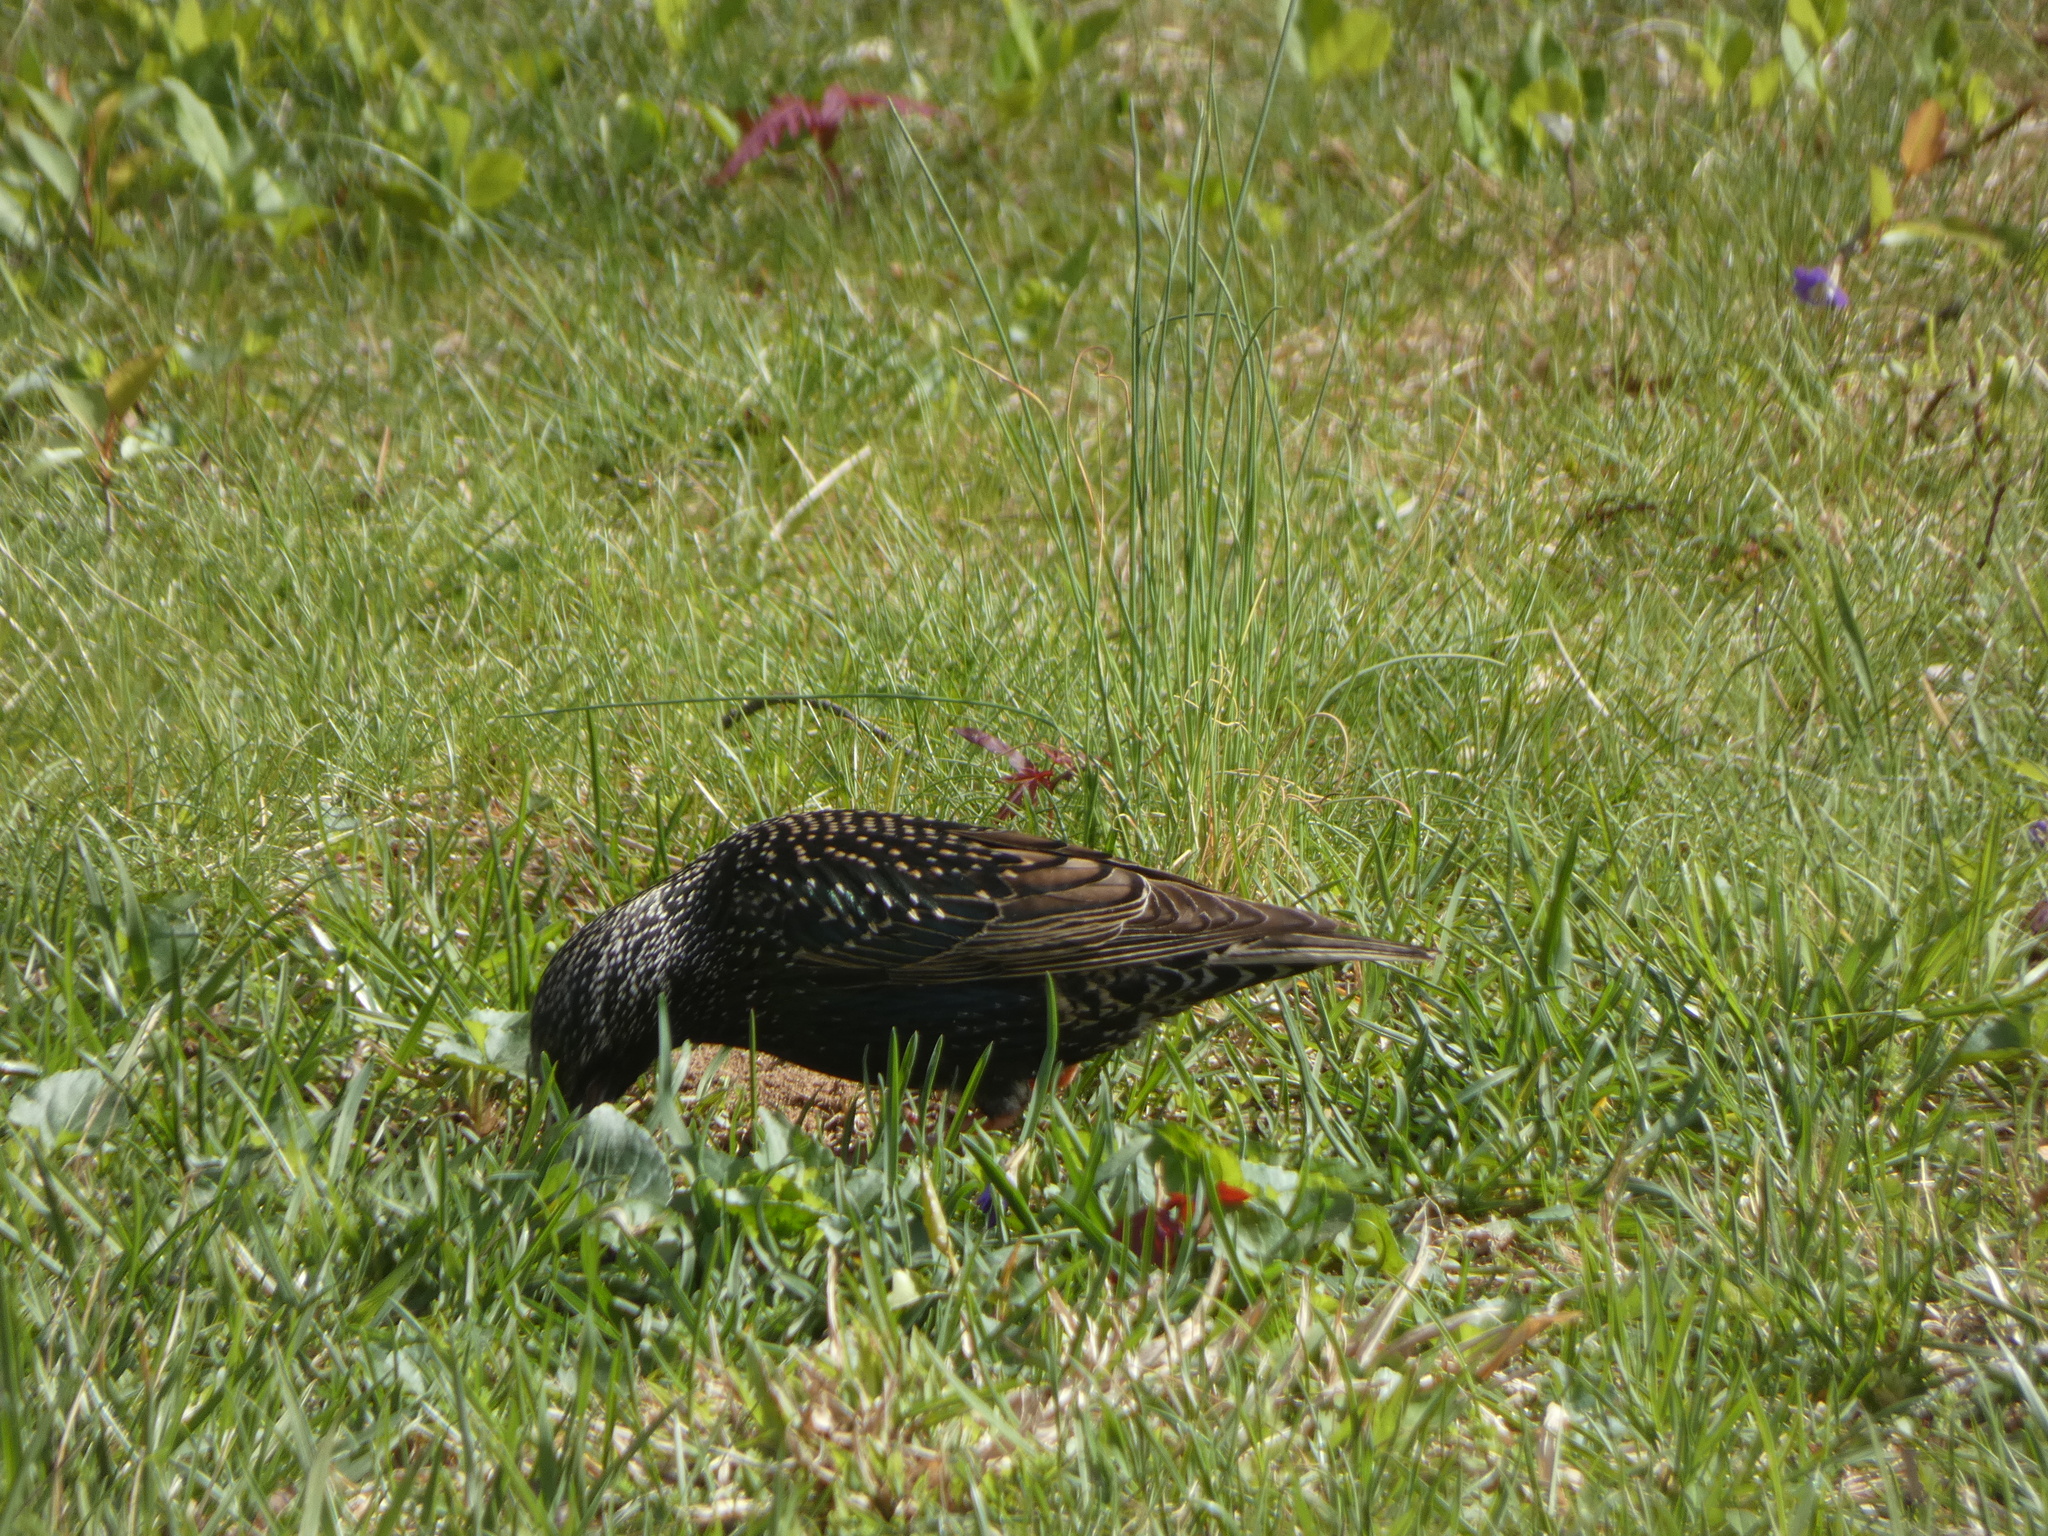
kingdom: Animalia
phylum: Chordata
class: Aves
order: Passeriformes
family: Sturnidae
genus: Sturnus
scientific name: Sturnus vulgaris
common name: Common starling
